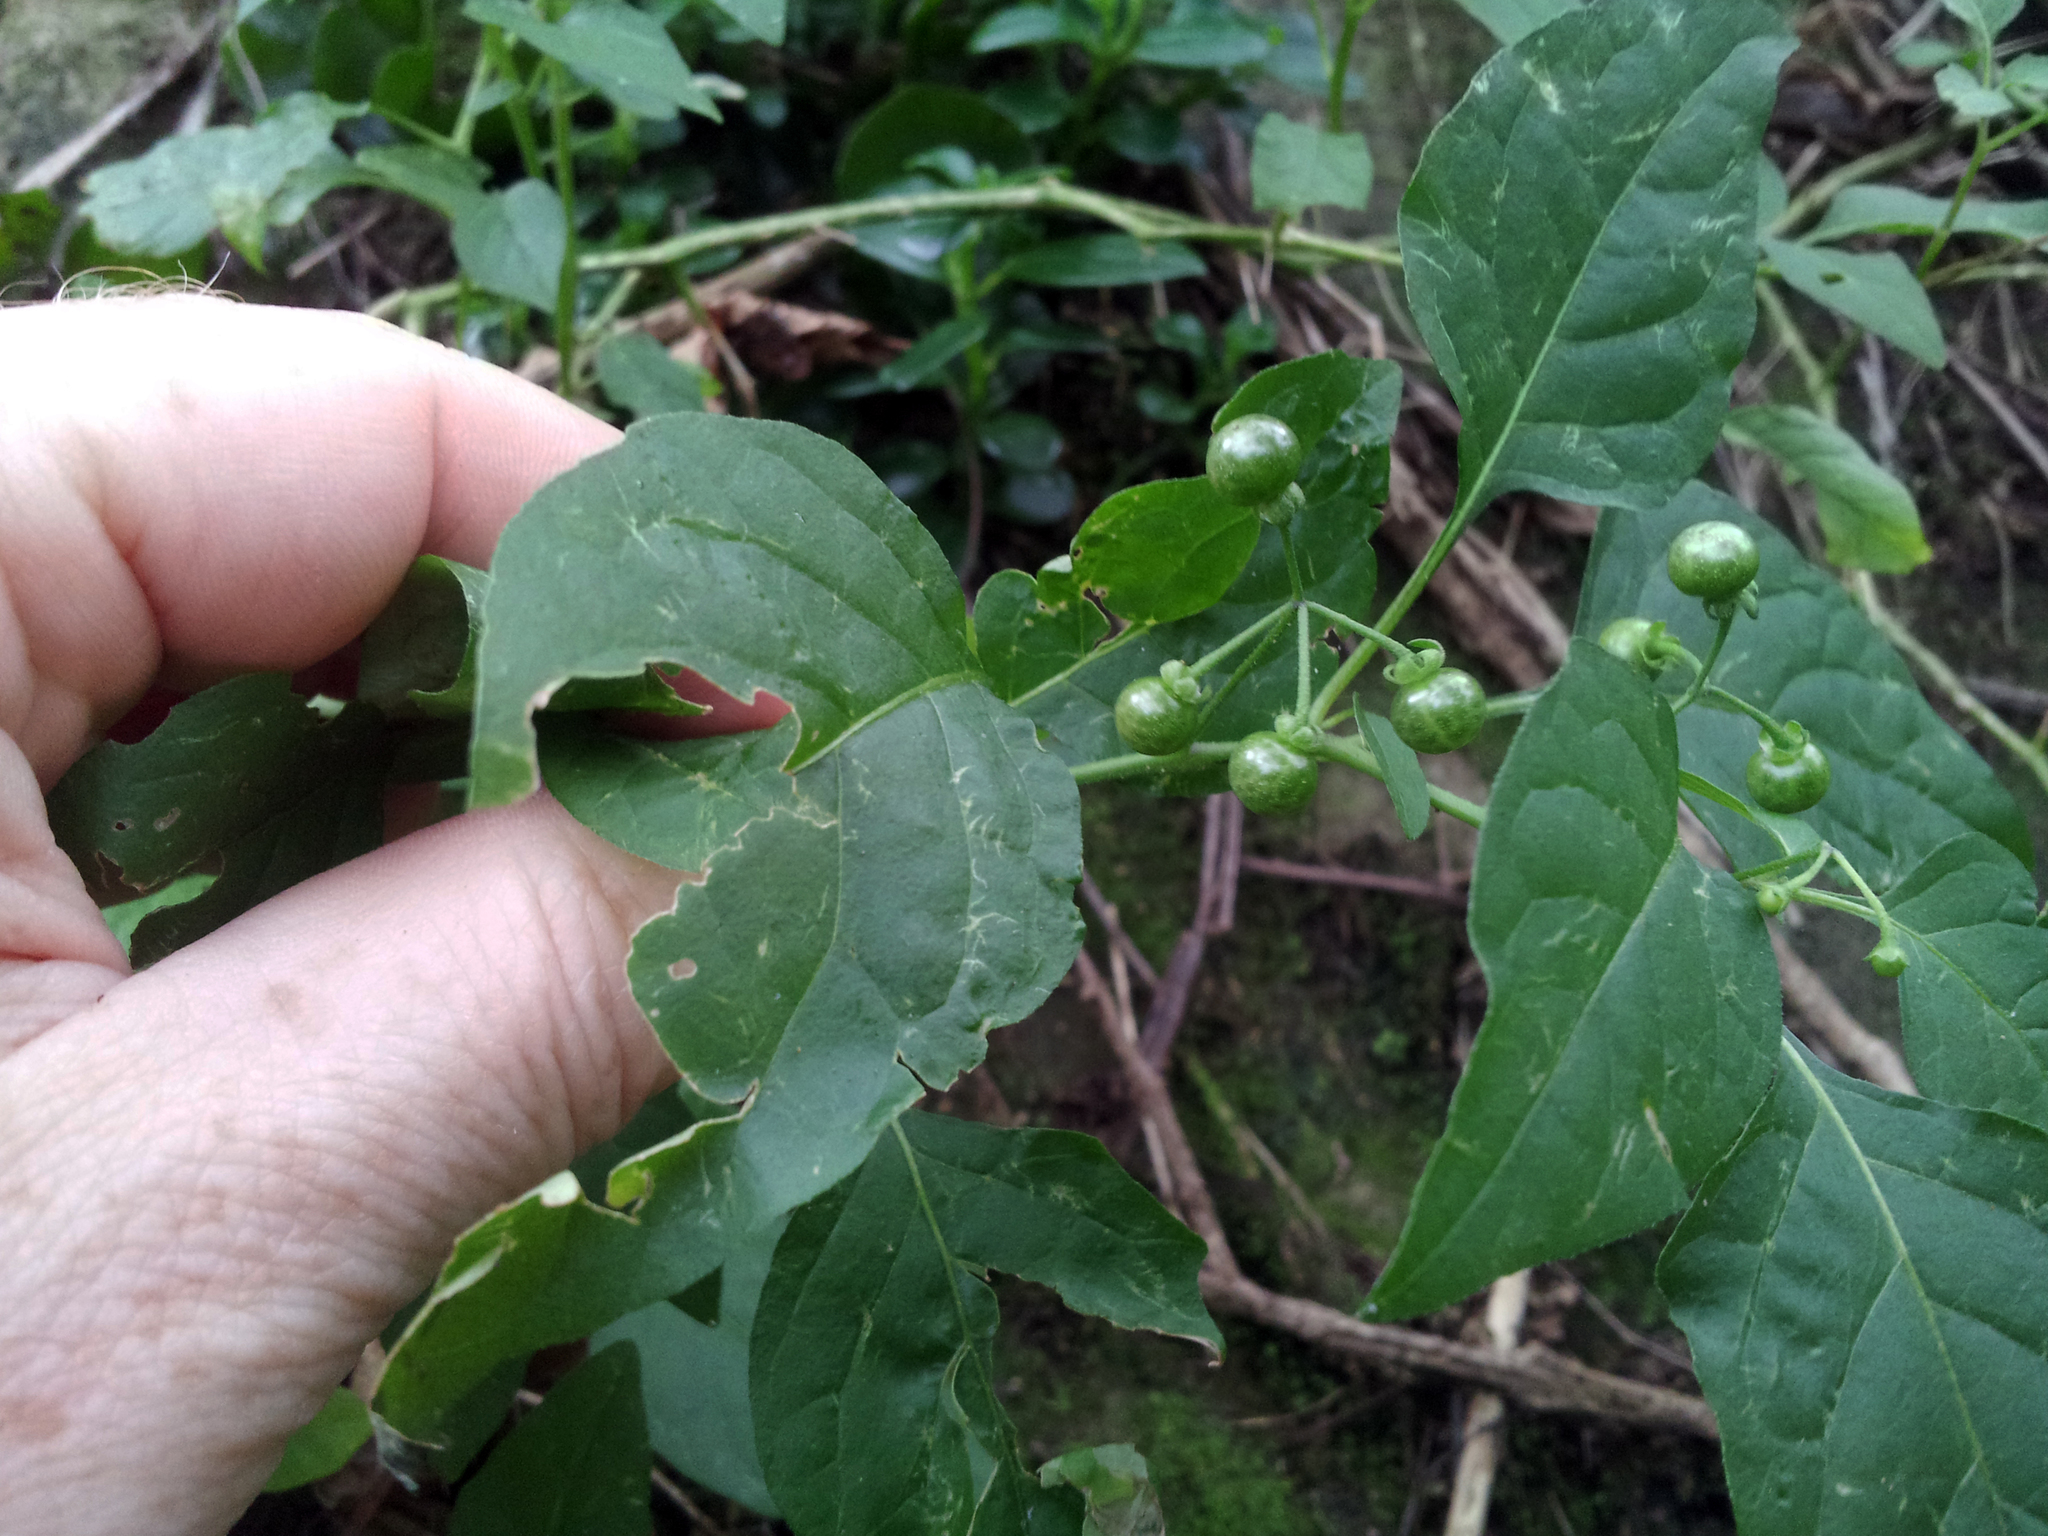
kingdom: Plantae
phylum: Tracheophyta
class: Magnoliopsida
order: Solanales
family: Solanaceae
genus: Solanum
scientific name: Solanum americanum
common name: American black nightshade
